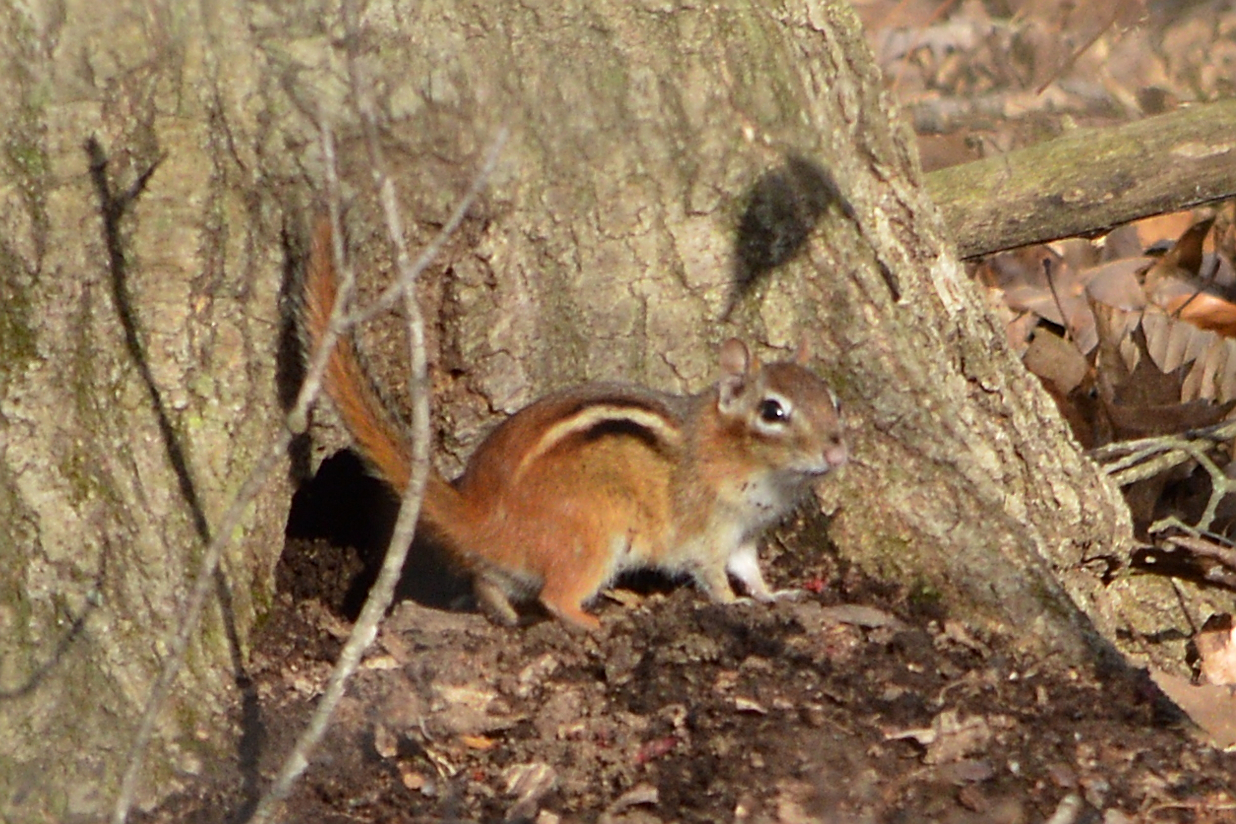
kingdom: Animalia
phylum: Chordata
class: Mammalia
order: Rodentia
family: Sciuridae
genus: Tamias
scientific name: Tamias striatus
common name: Eastern chipmunk
